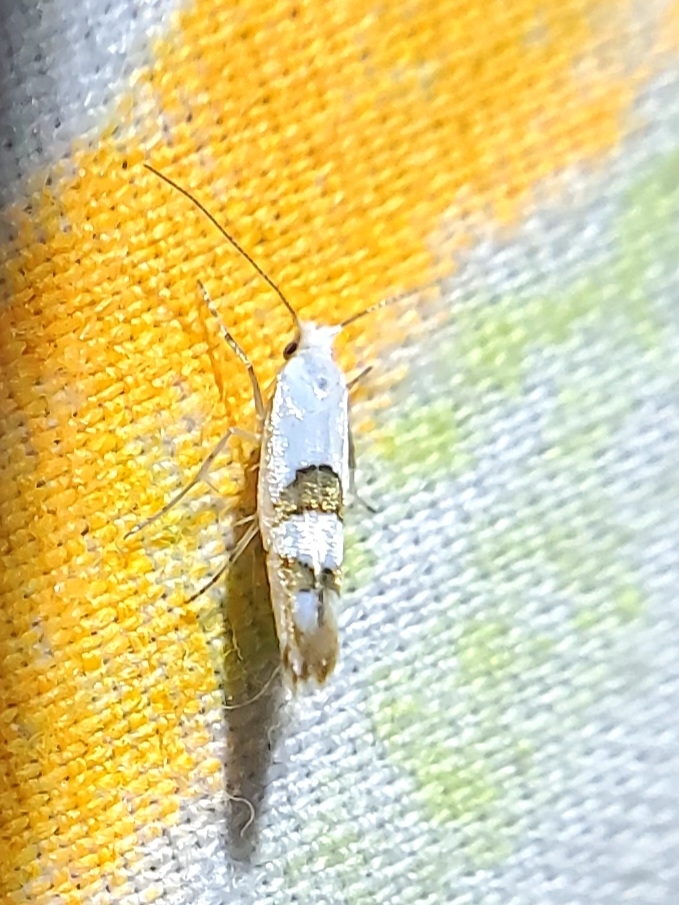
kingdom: Animalia
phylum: Arthropoda
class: Insecta
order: Lepidoptera
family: Argyresthiidae
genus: Argyresthia
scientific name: Argyresthia oreasella
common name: Cherry shoot borer moth
